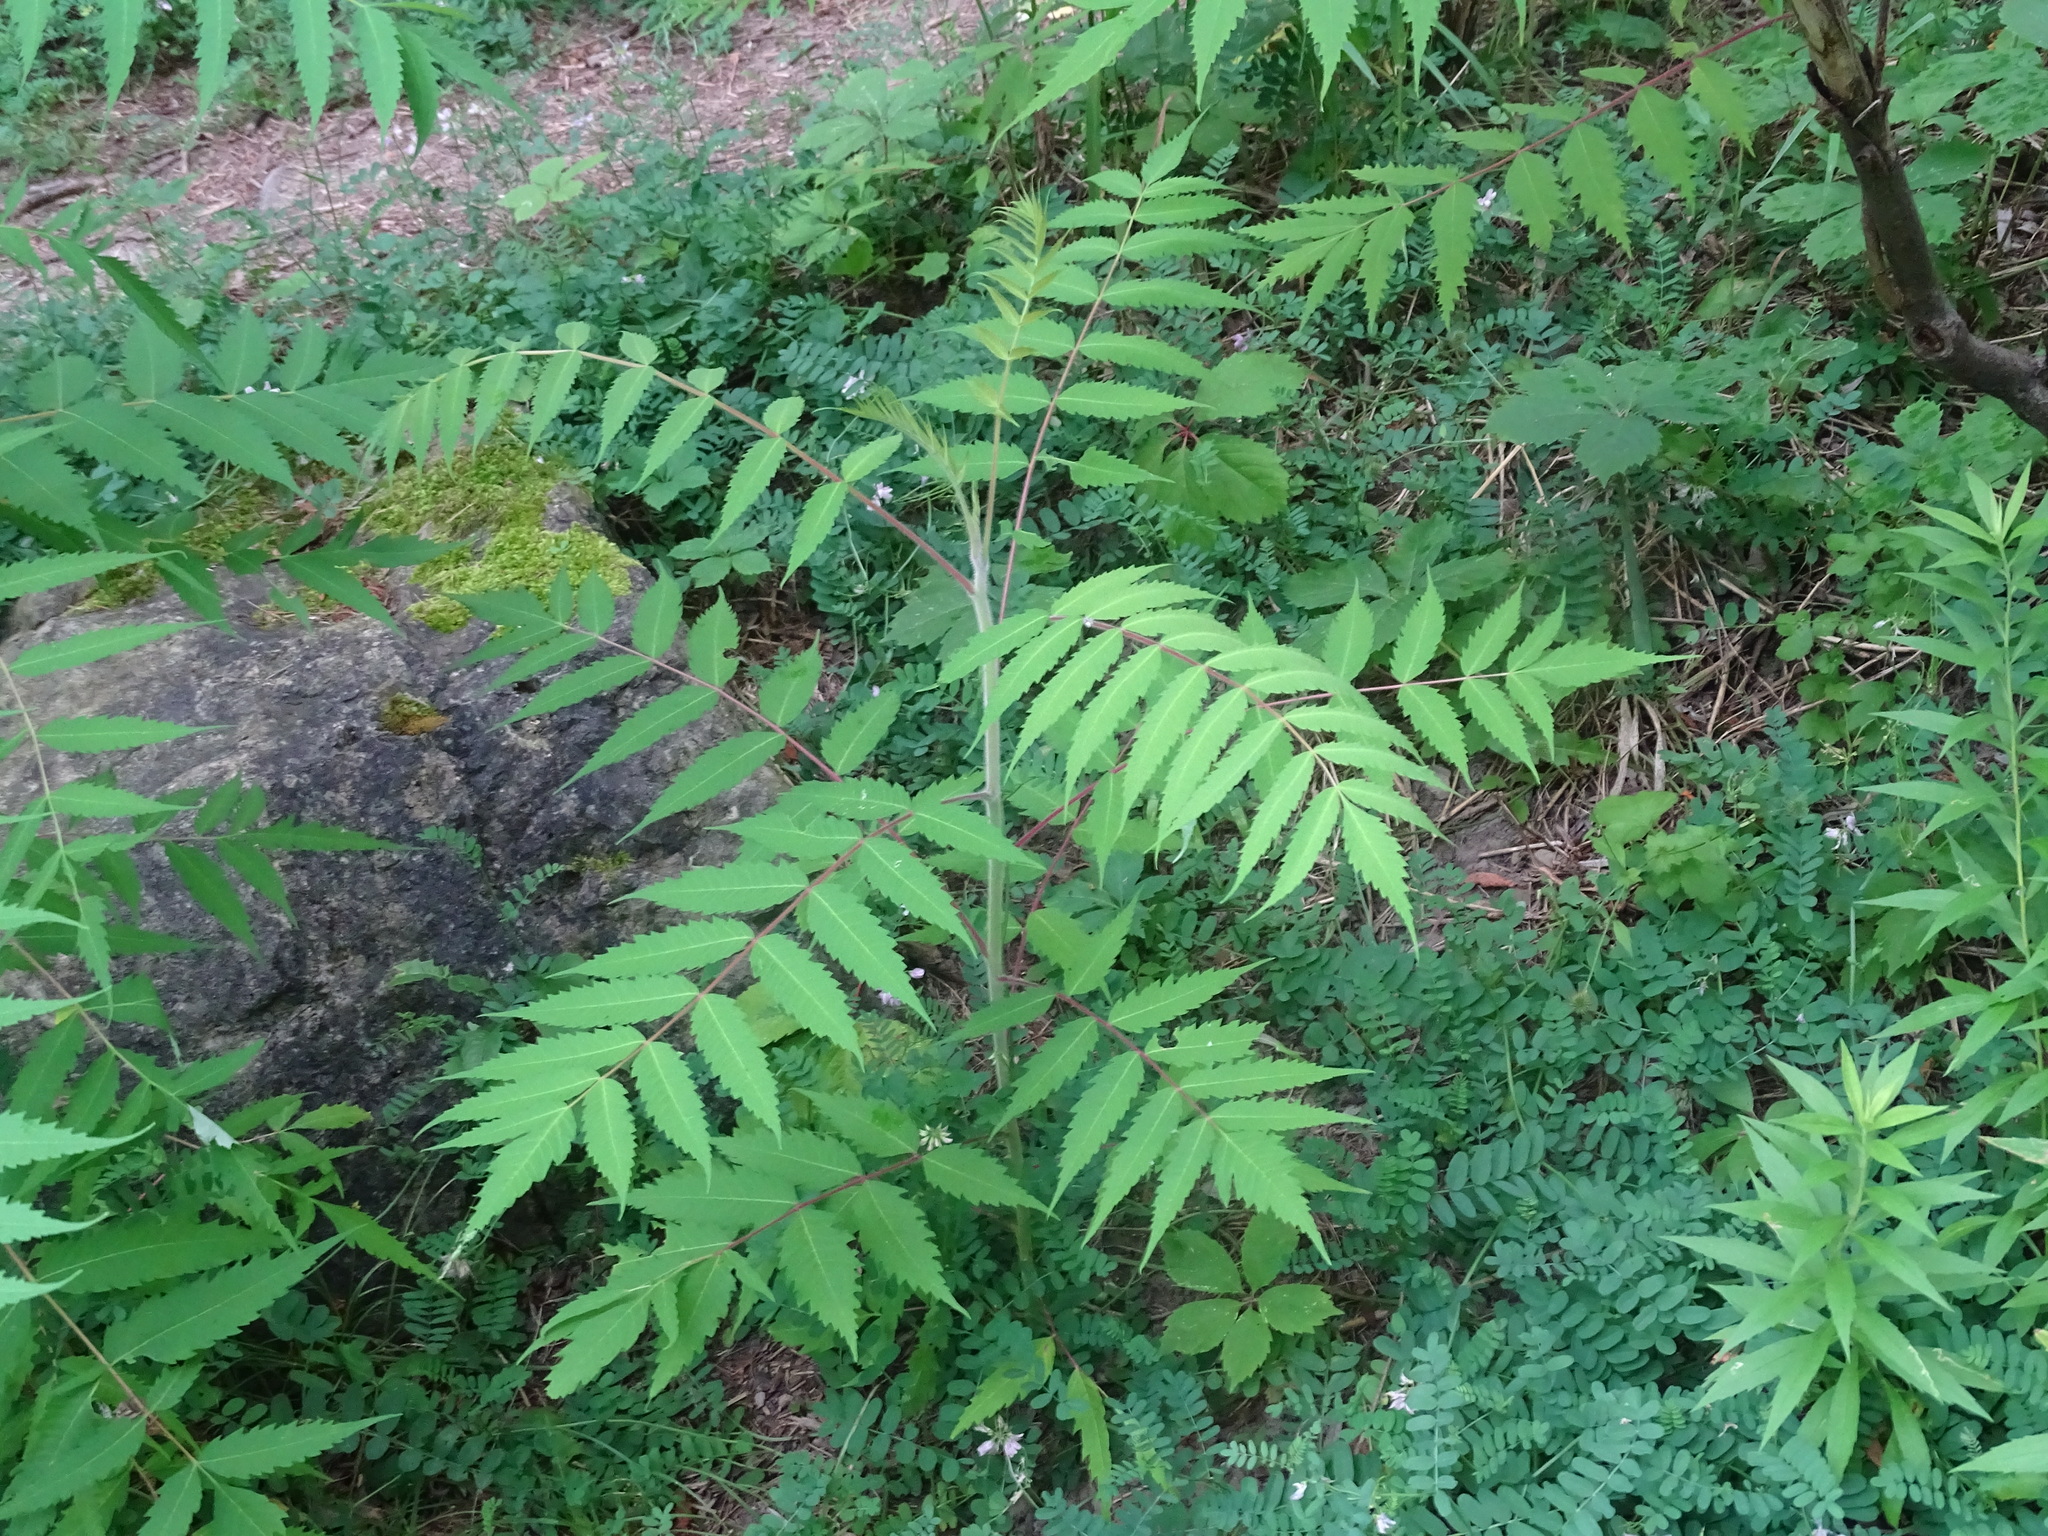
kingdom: Plantae
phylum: Tracheophyta
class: Magnoliopsida
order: Sapindales
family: Anacardiaceae
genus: Rhus
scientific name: Rhus typhina
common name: Staghorn sumac
